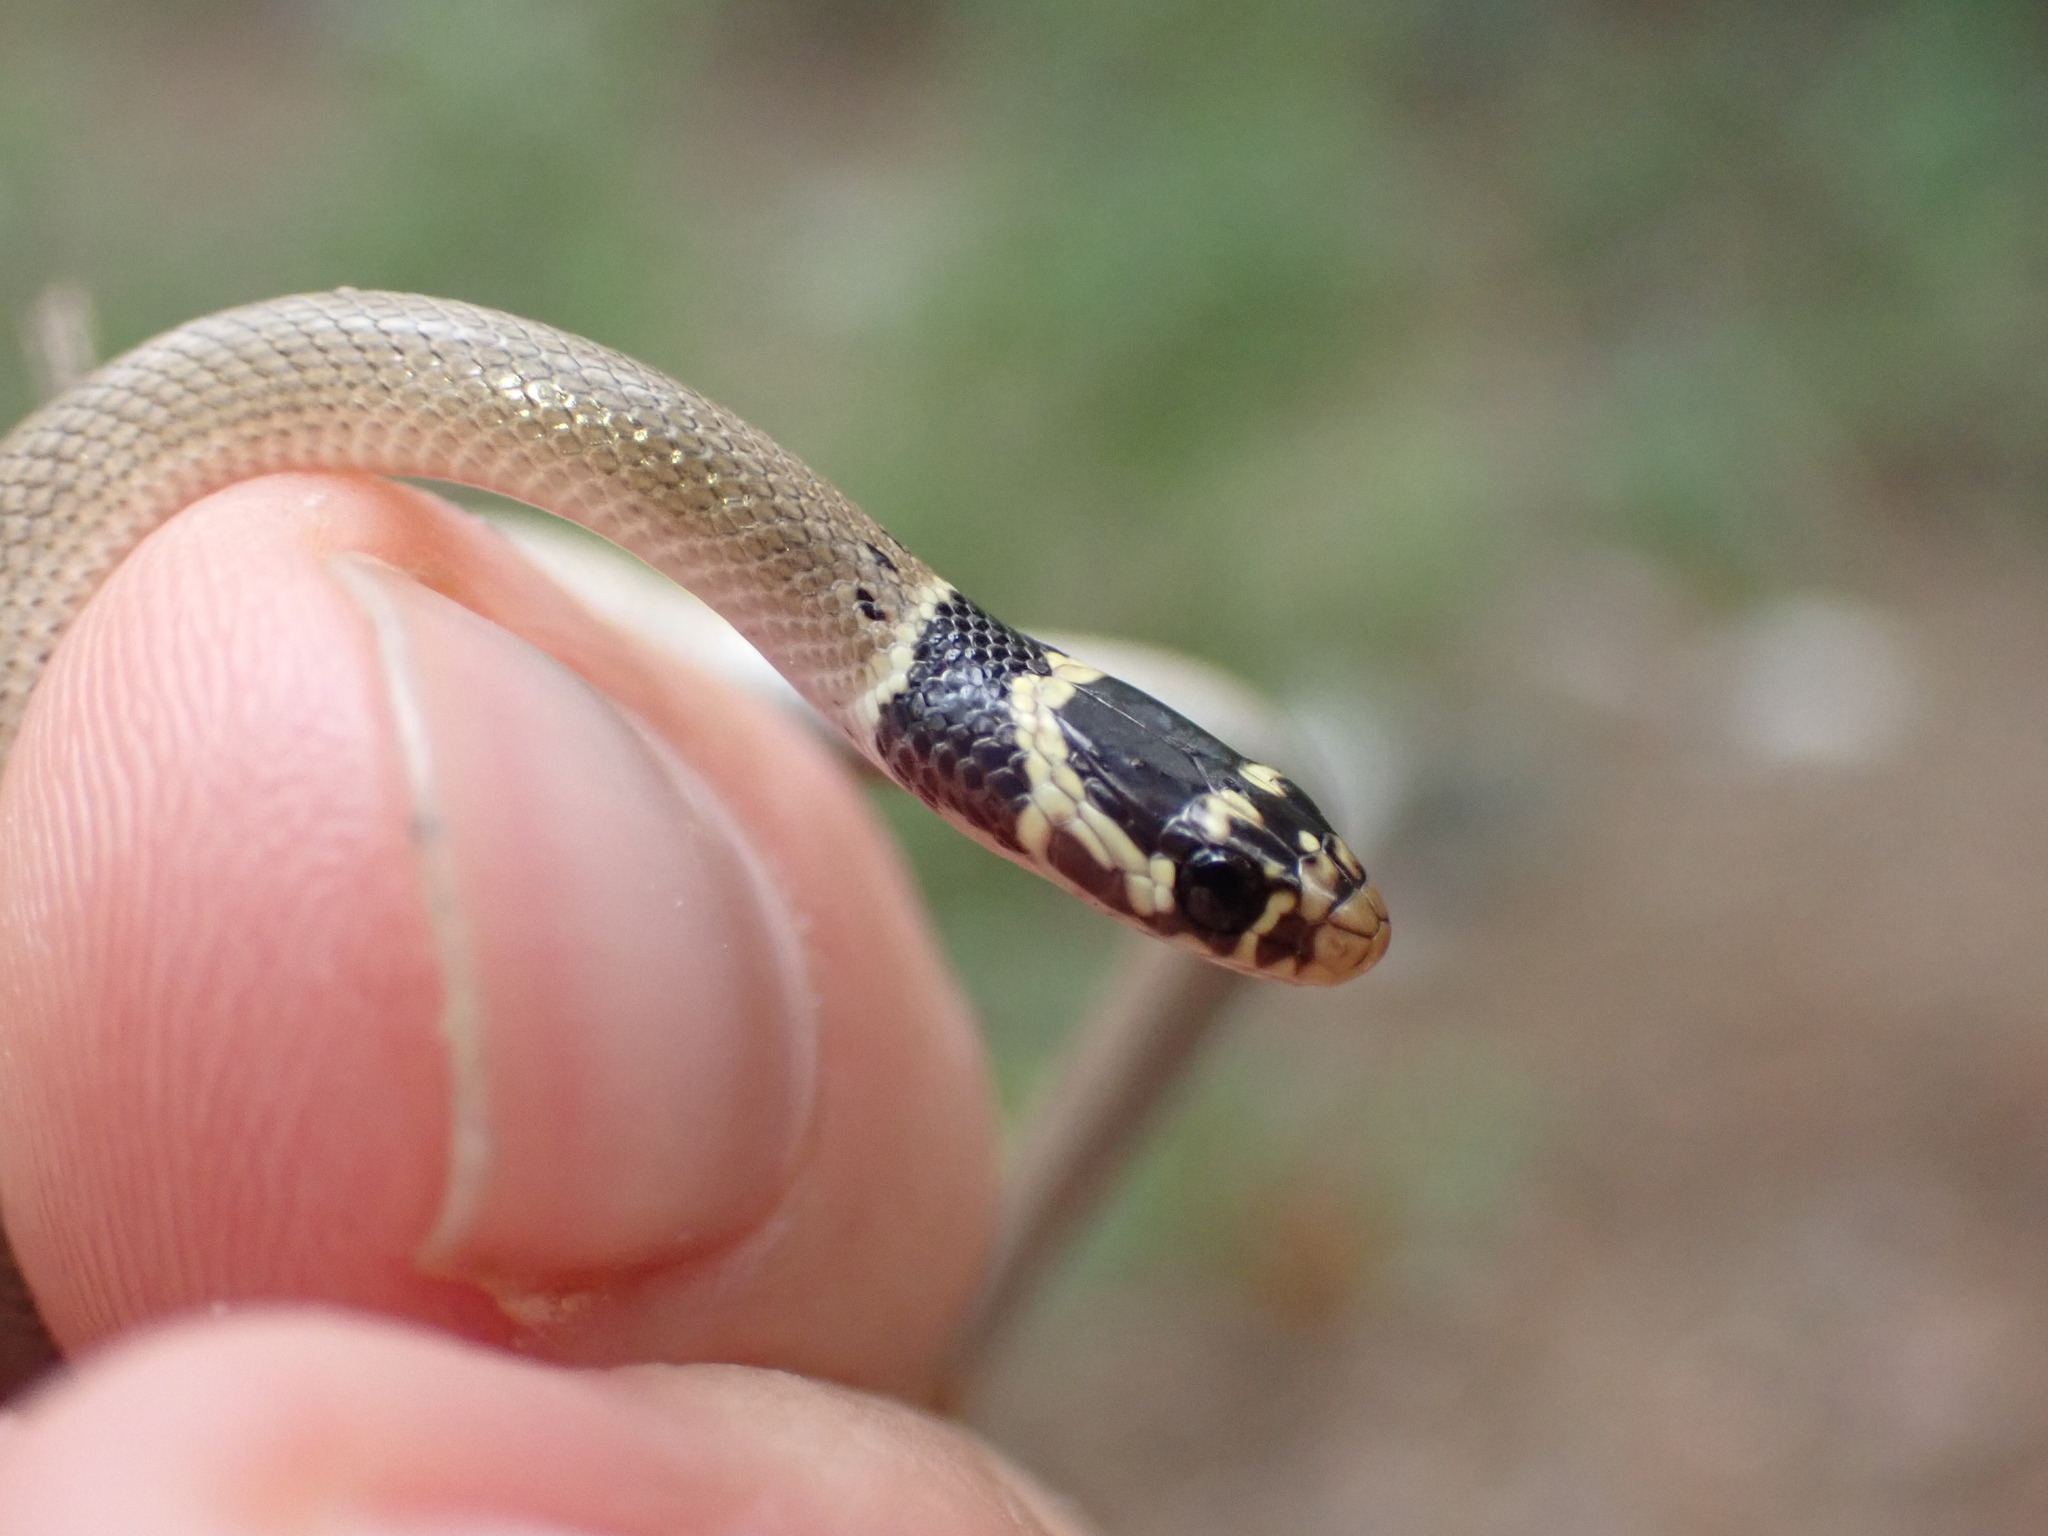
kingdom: Animalia
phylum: Chordata
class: Squamata
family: Colubridae
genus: Eirenis
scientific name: Eirenis modestus
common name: Ring-headed dwarf snake
